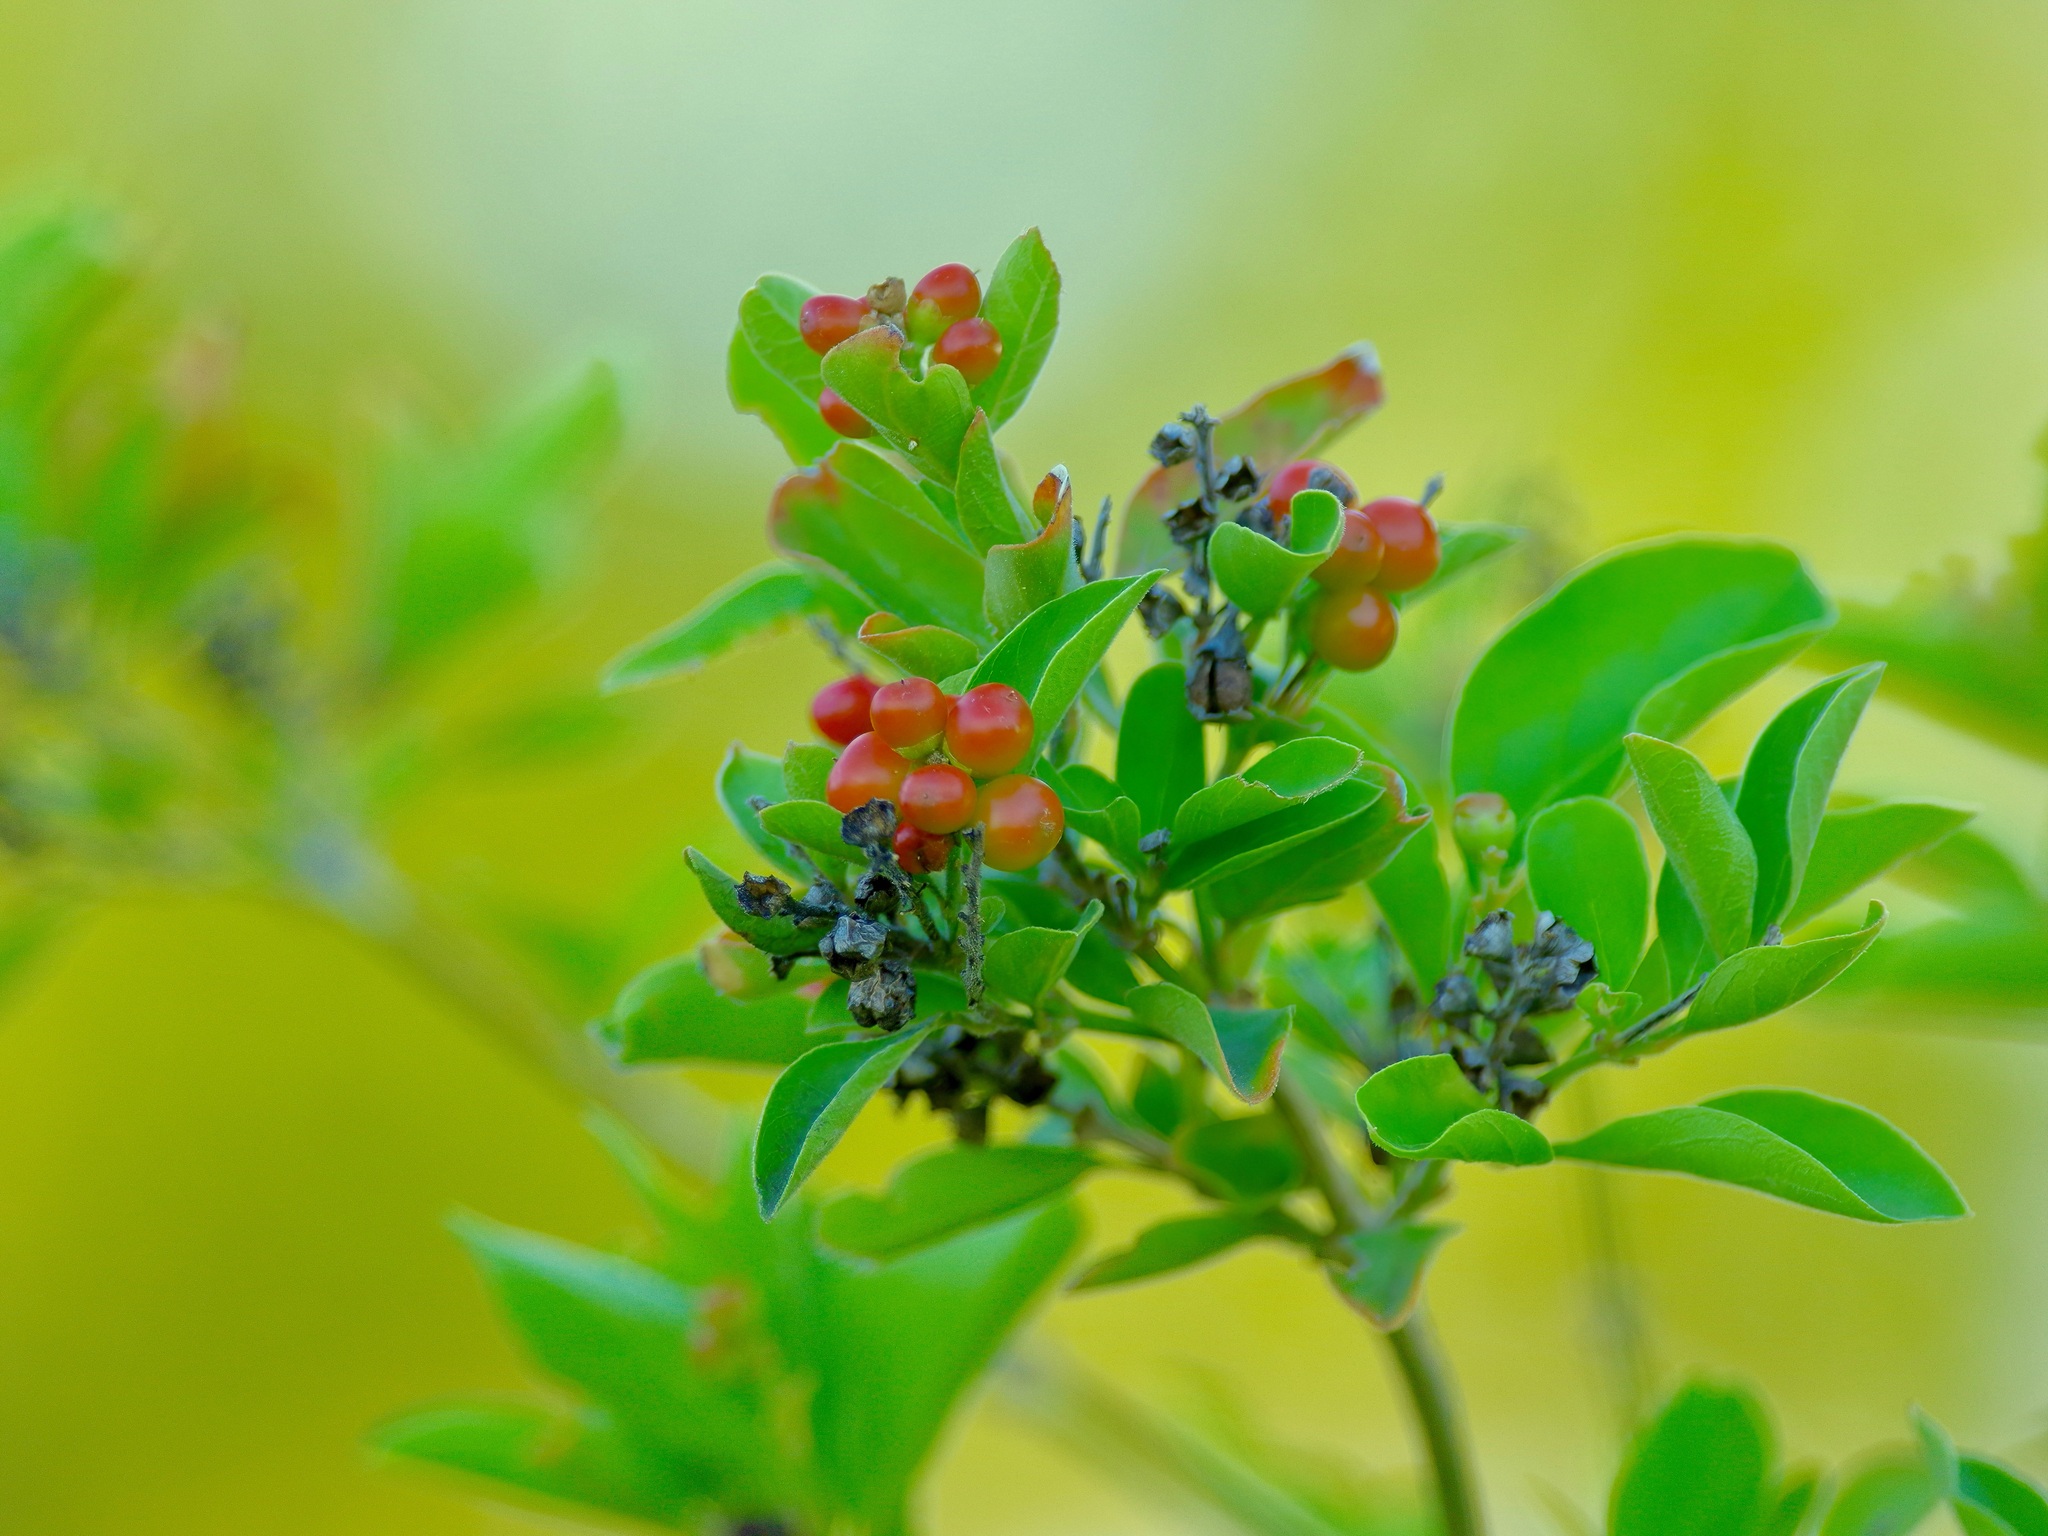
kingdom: Plantae
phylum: Tracheophyta
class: Magnoliopsida
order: Lamiales
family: Verbenaceae
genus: Citharexylum
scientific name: Citharexylum berlandieri
